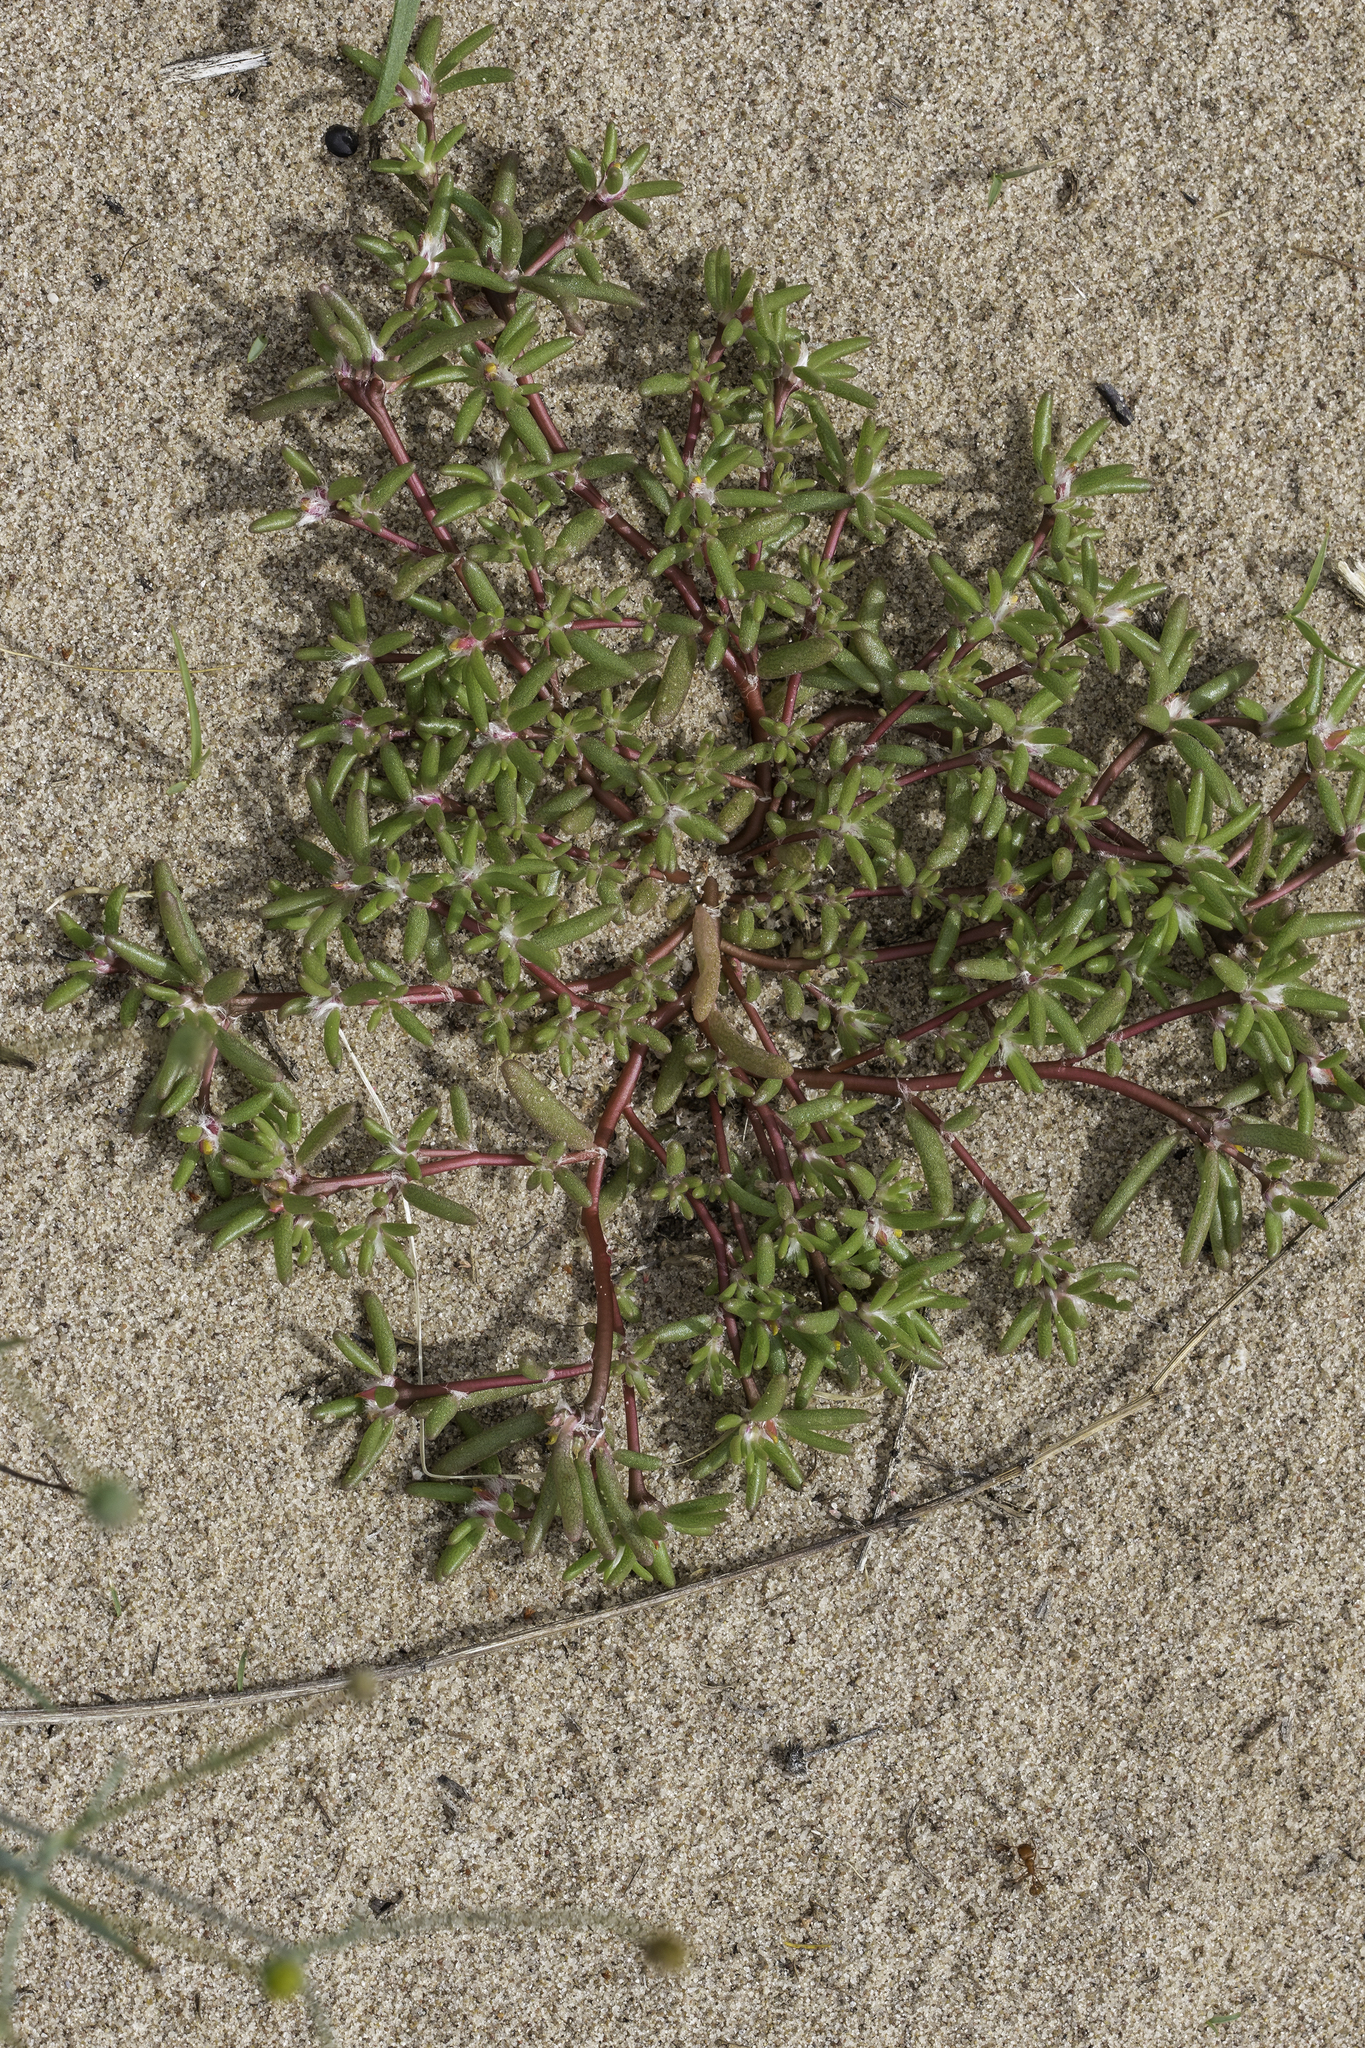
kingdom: Plantae
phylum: Tracheophyta
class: Magnoliopsida
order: Caryophyllales
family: Portulacaceae
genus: Portulaca
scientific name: Portulaca halimoides
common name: Silk cotton purslane
